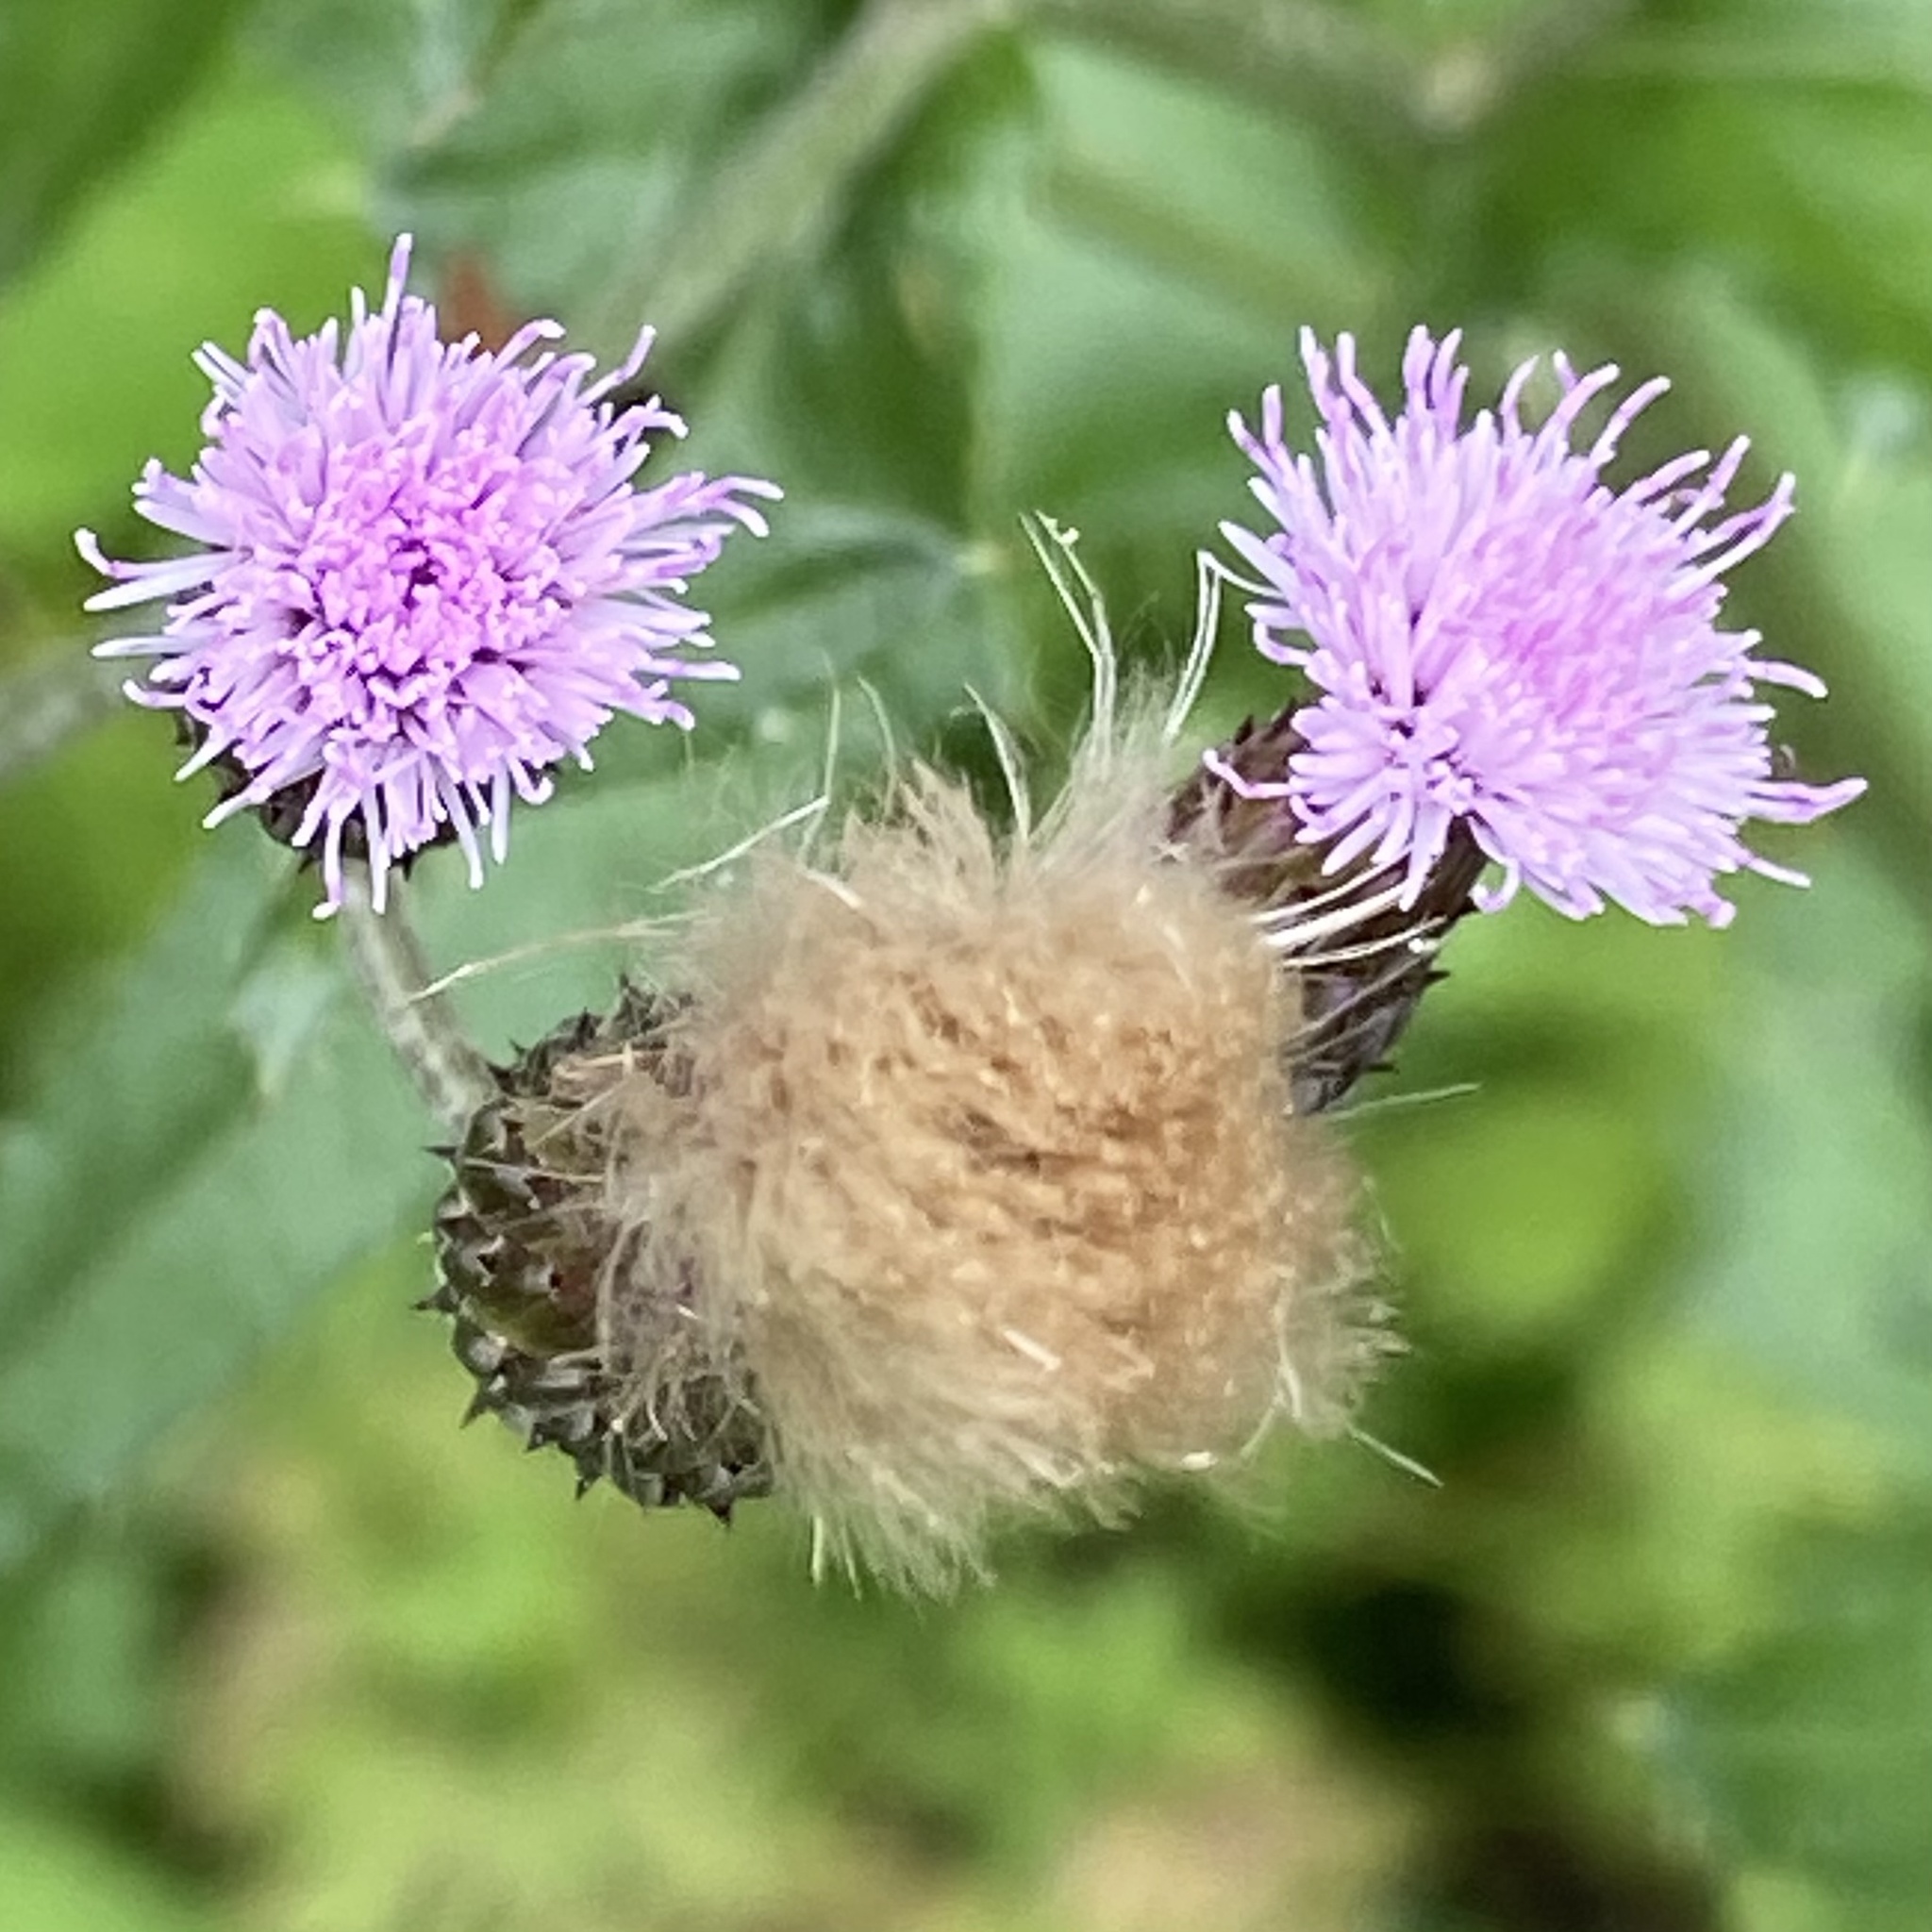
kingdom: Plantae
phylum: Tracheophyta
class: Magnoliopsida
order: Asterales
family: Asteraceae
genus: Cirsium
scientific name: Cirsium arvense
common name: Creeping thistle
